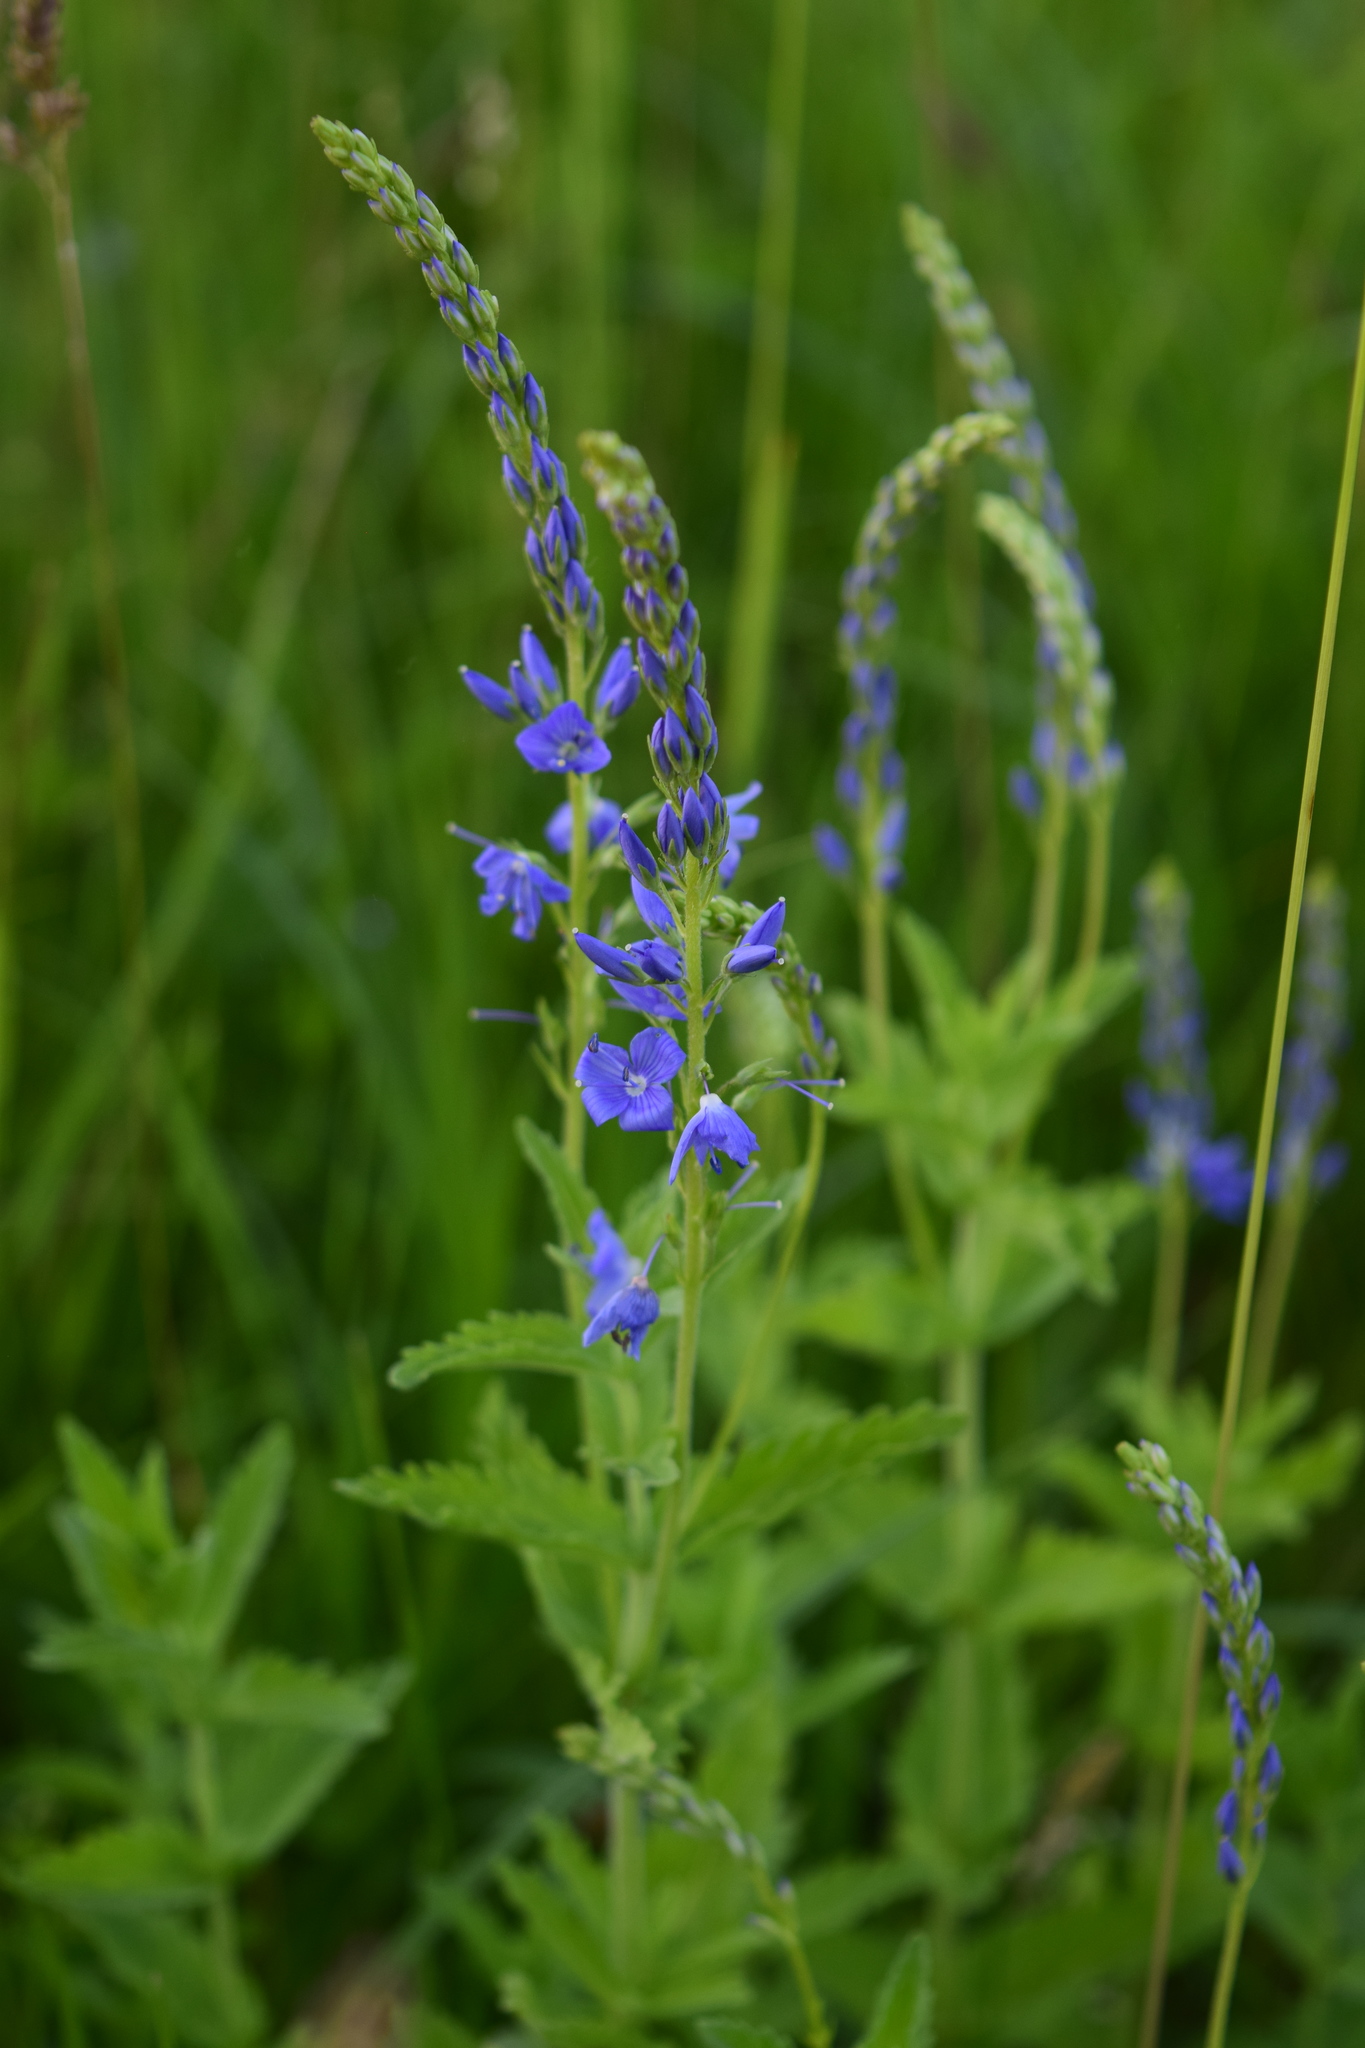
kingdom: Plantae
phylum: Tracheophyta
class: Magnoliopsida
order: Lamiales
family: Plantaginaceae
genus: Veronica
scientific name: Veronica teucrium
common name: Large speedwell
